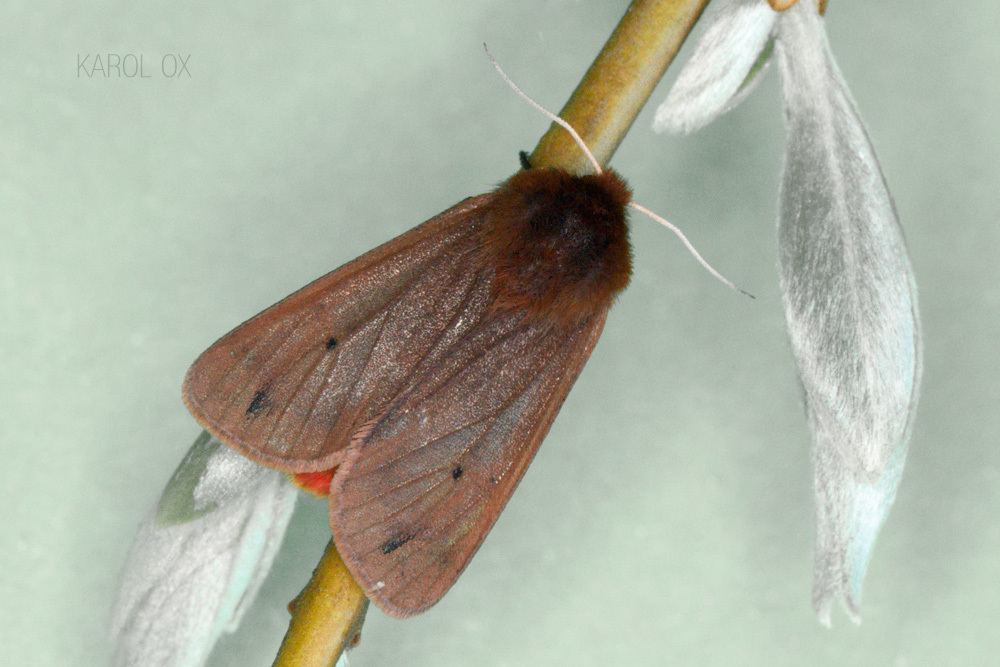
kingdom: Animalia
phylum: Arthropoda
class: Insecta
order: Lepidoptera
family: Erebidae
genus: Phragmatobia
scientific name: Phragmatobia fuliginosa
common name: Ruby tiger
